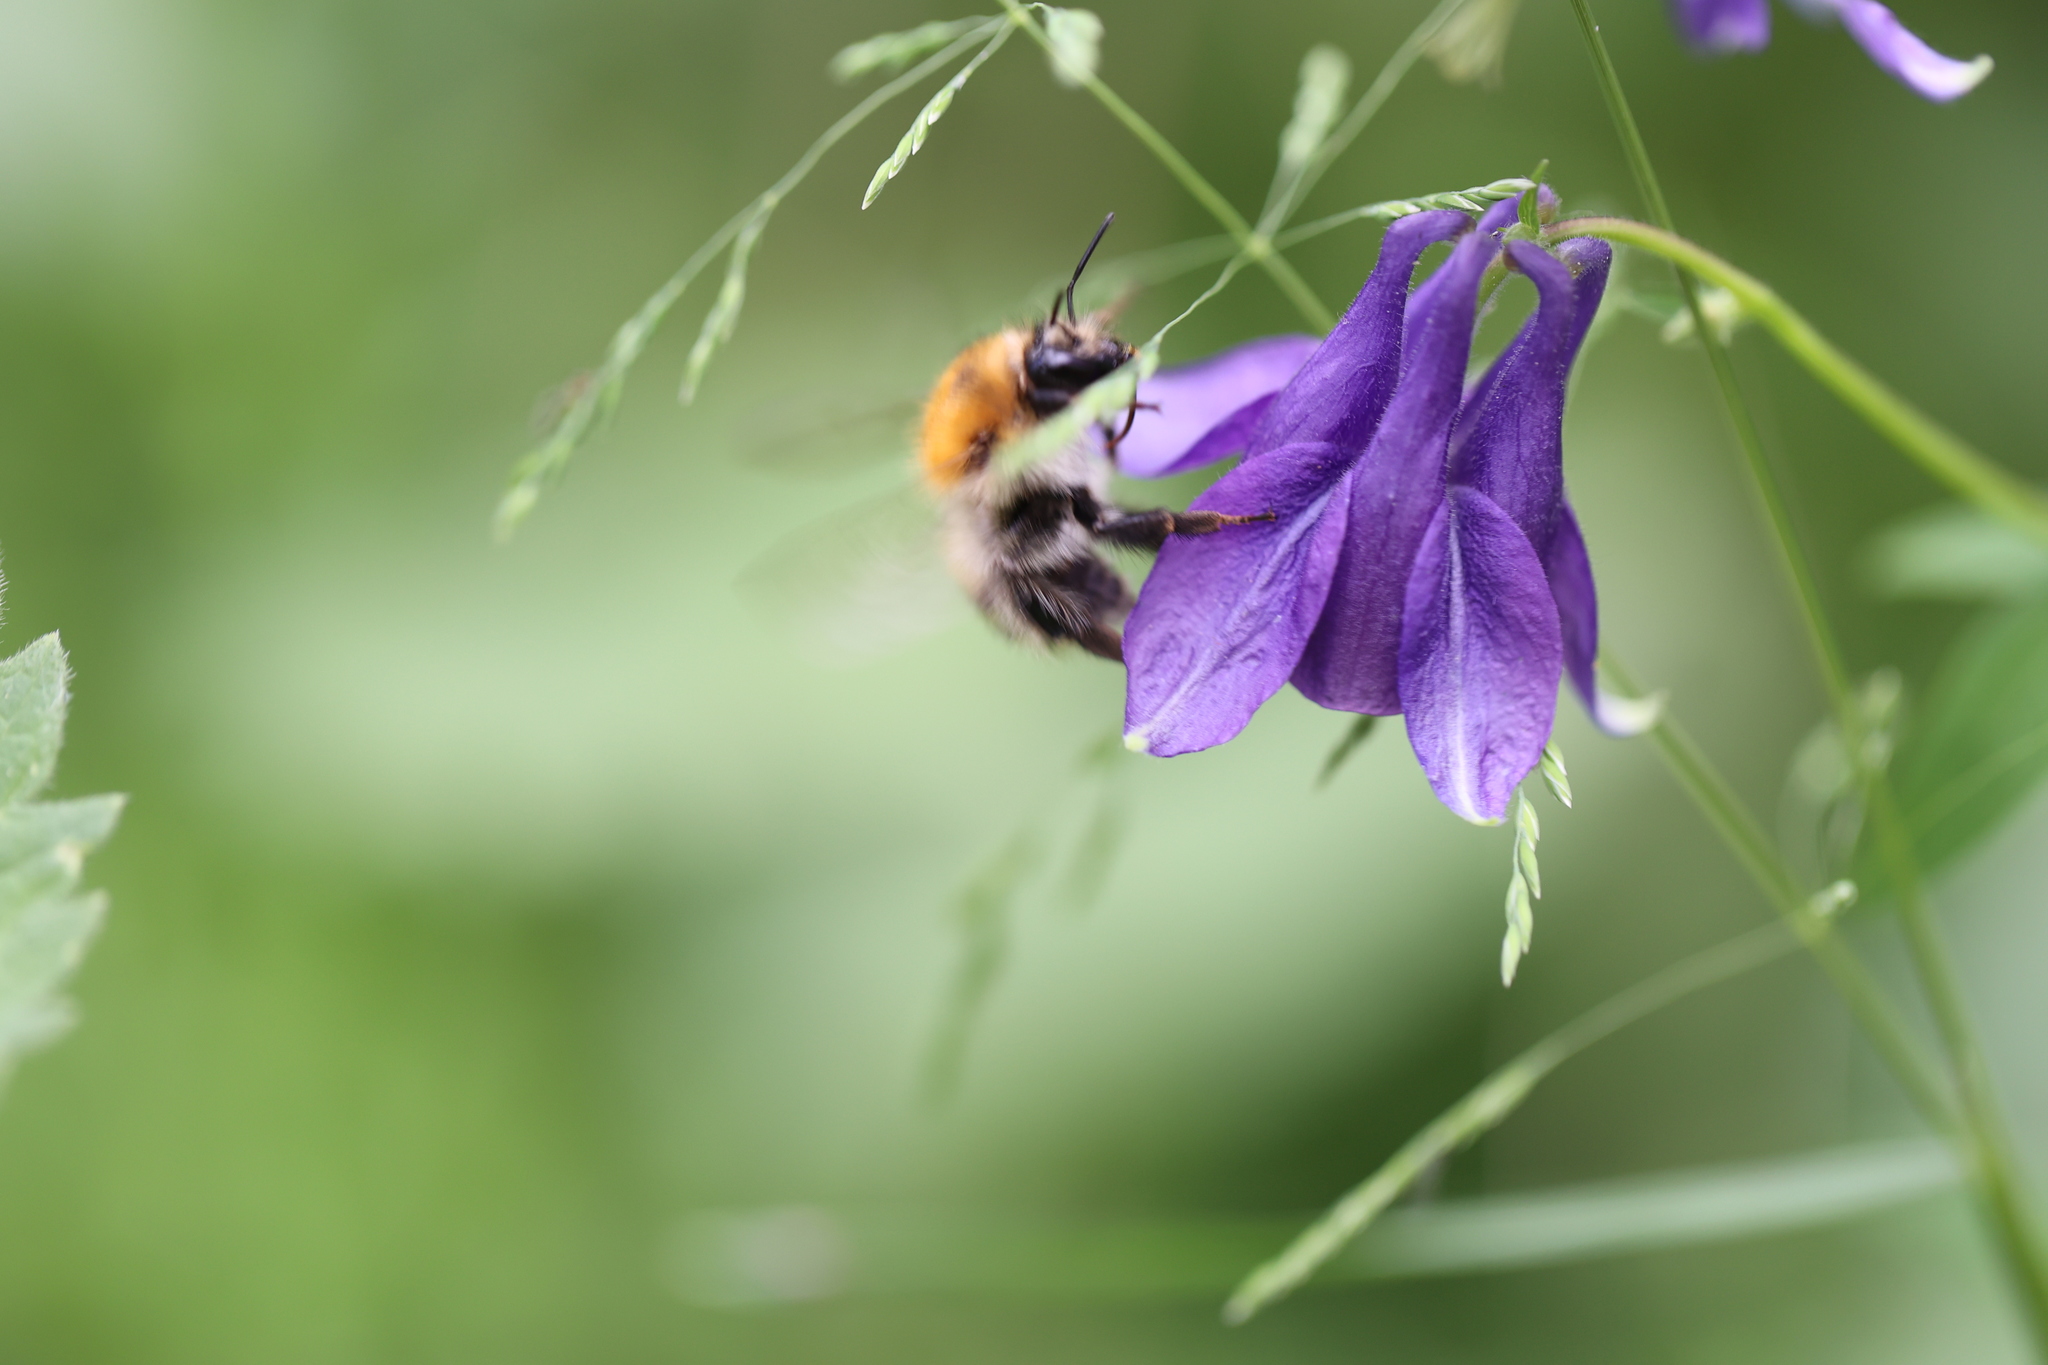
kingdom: Animalia
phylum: Arthropoda
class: Insecta
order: Hymenoptera
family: Apidae
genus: Bombus
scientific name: Bombus pascuorum
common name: Common carder bee
